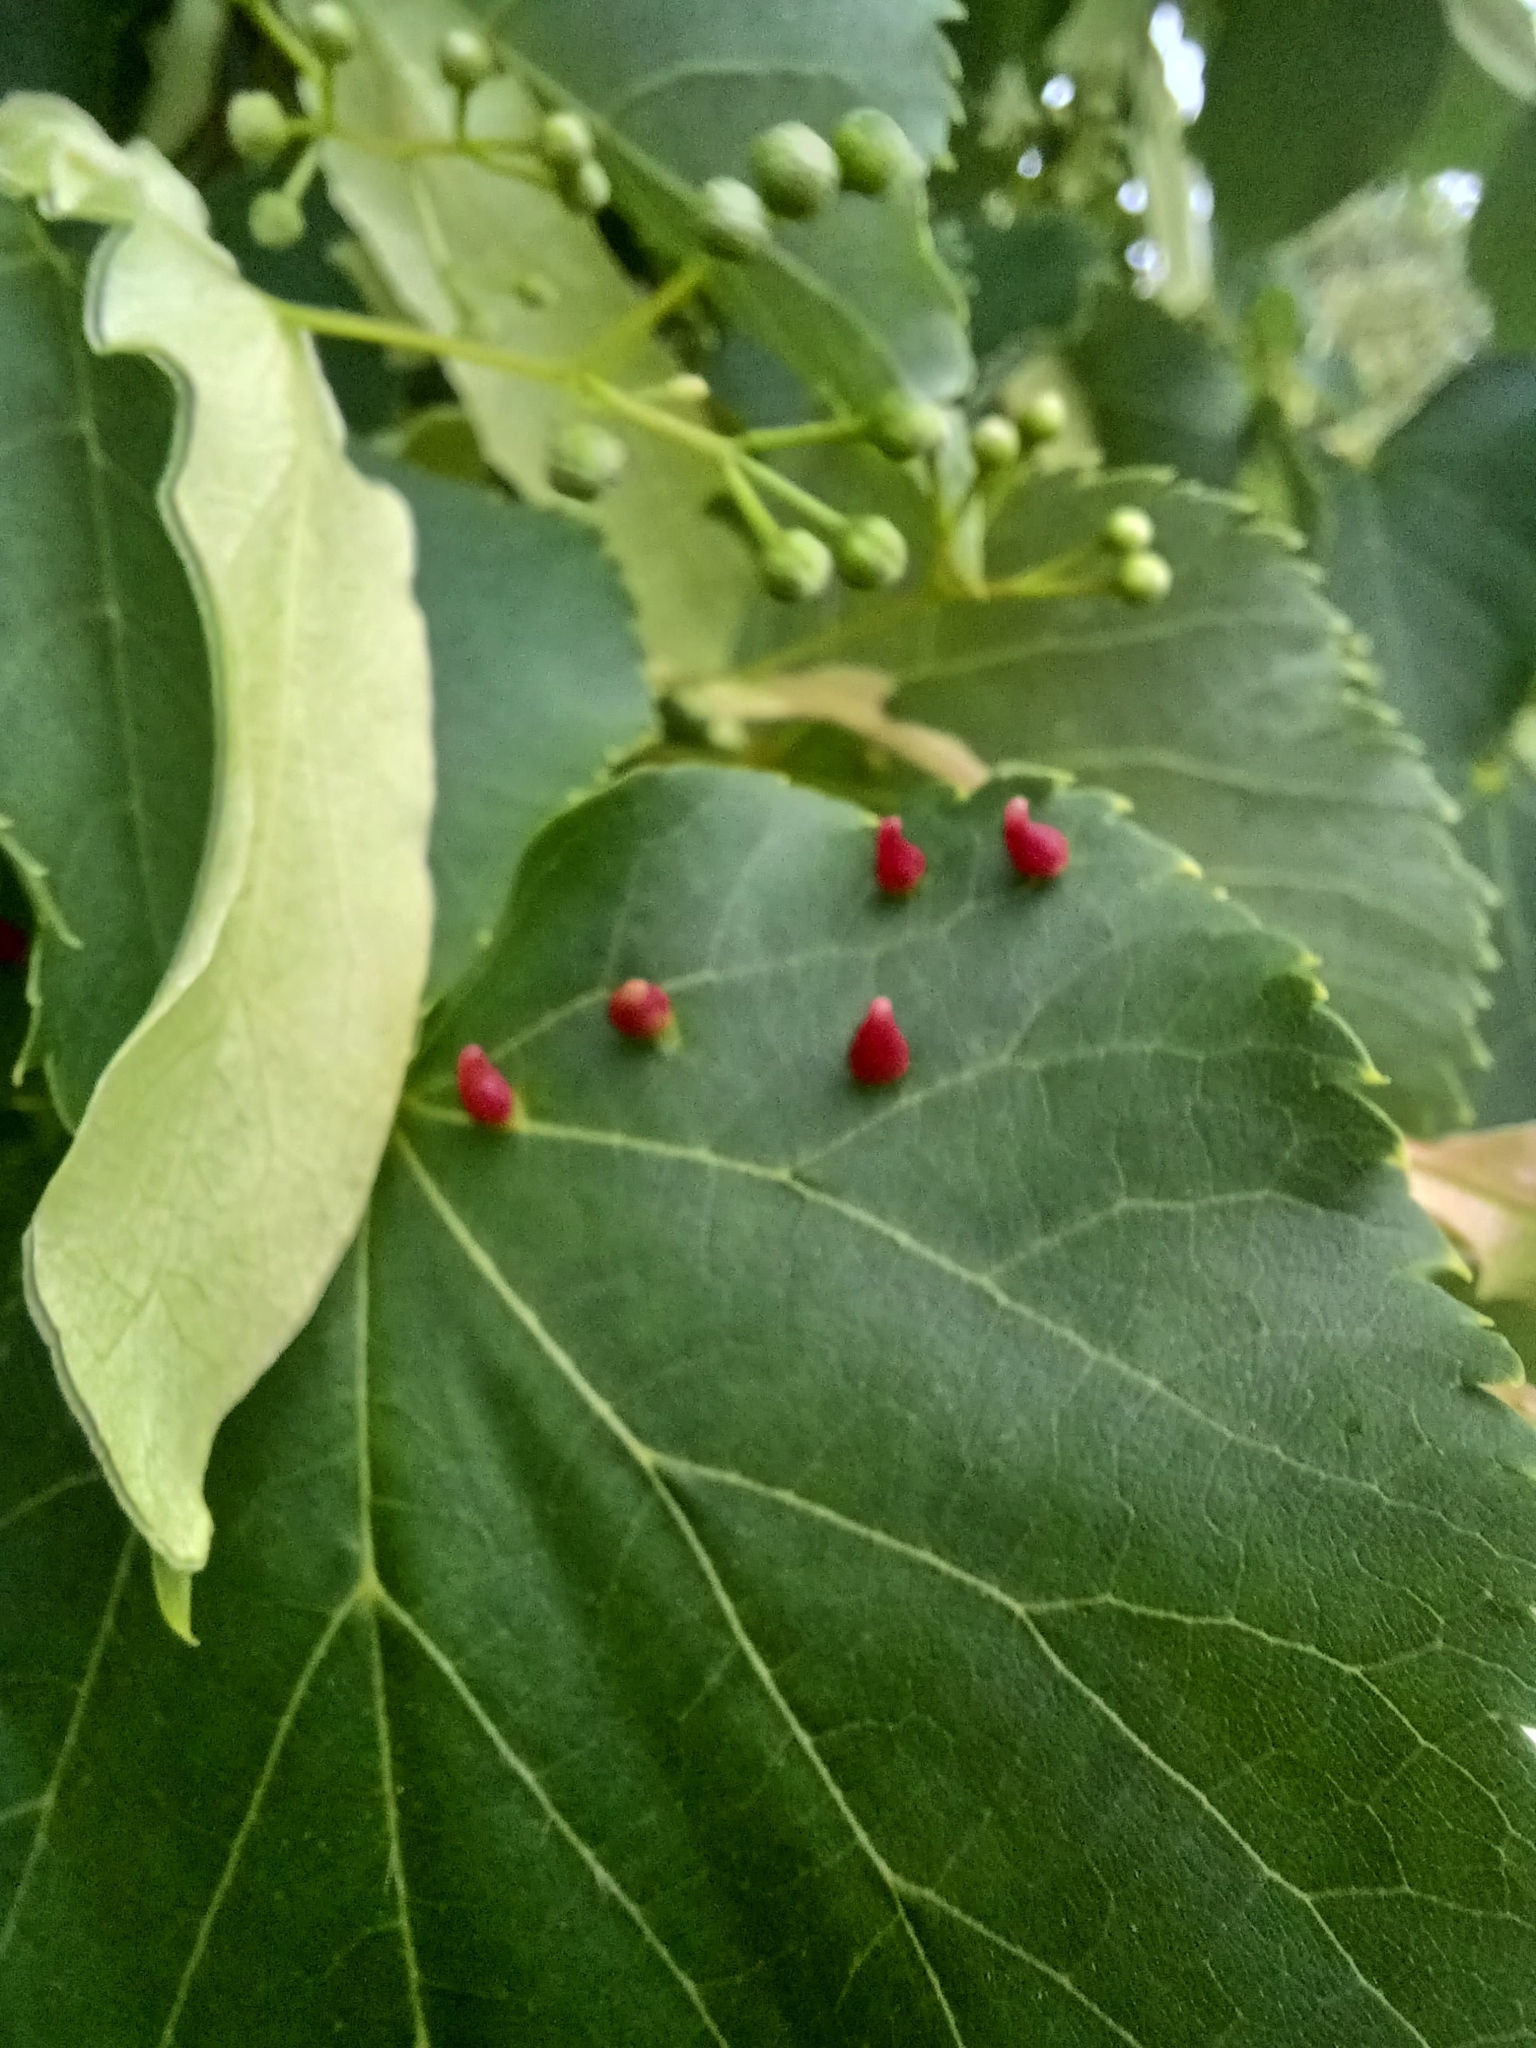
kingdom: Animalia
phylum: Arthropoda
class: Arachnida
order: Trombidiformes
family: Eriophyidae
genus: Eriophyes
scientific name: Eriophyes tiliae
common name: Red nail gall mite
